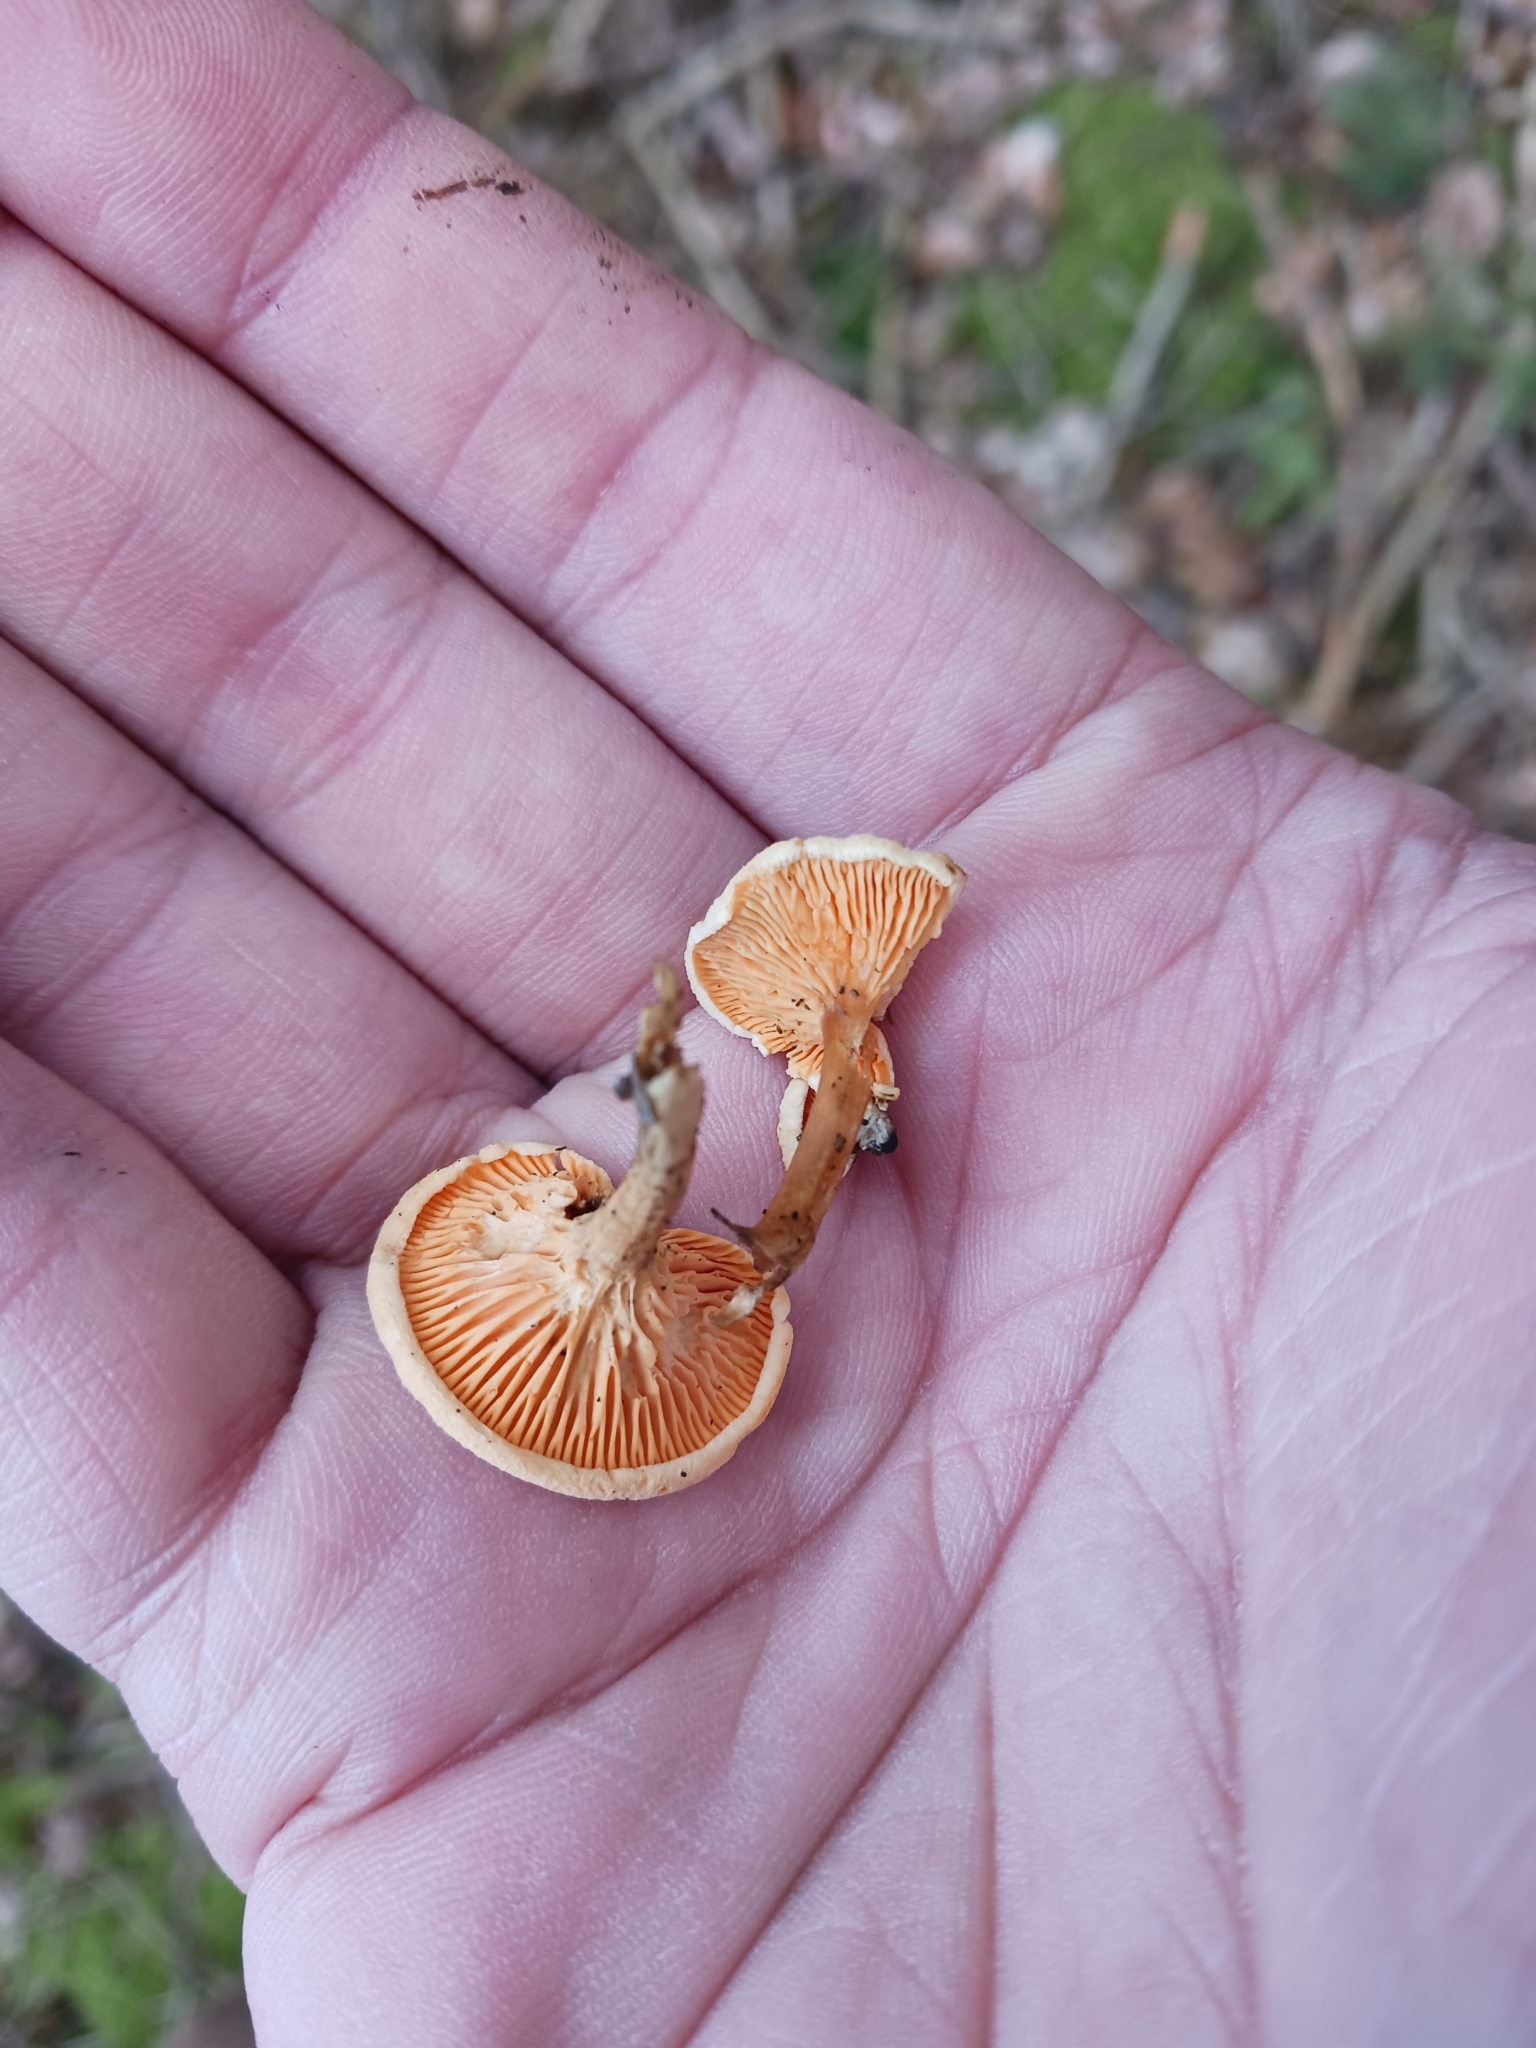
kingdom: Fungi
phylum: Basidiomycota
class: Agaricomycetes
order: Boletales
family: Hygrophoropsidaceae
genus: Hygrophoropsis
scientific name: Hygrophoropsis aurantiaca
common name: False chanterelle
